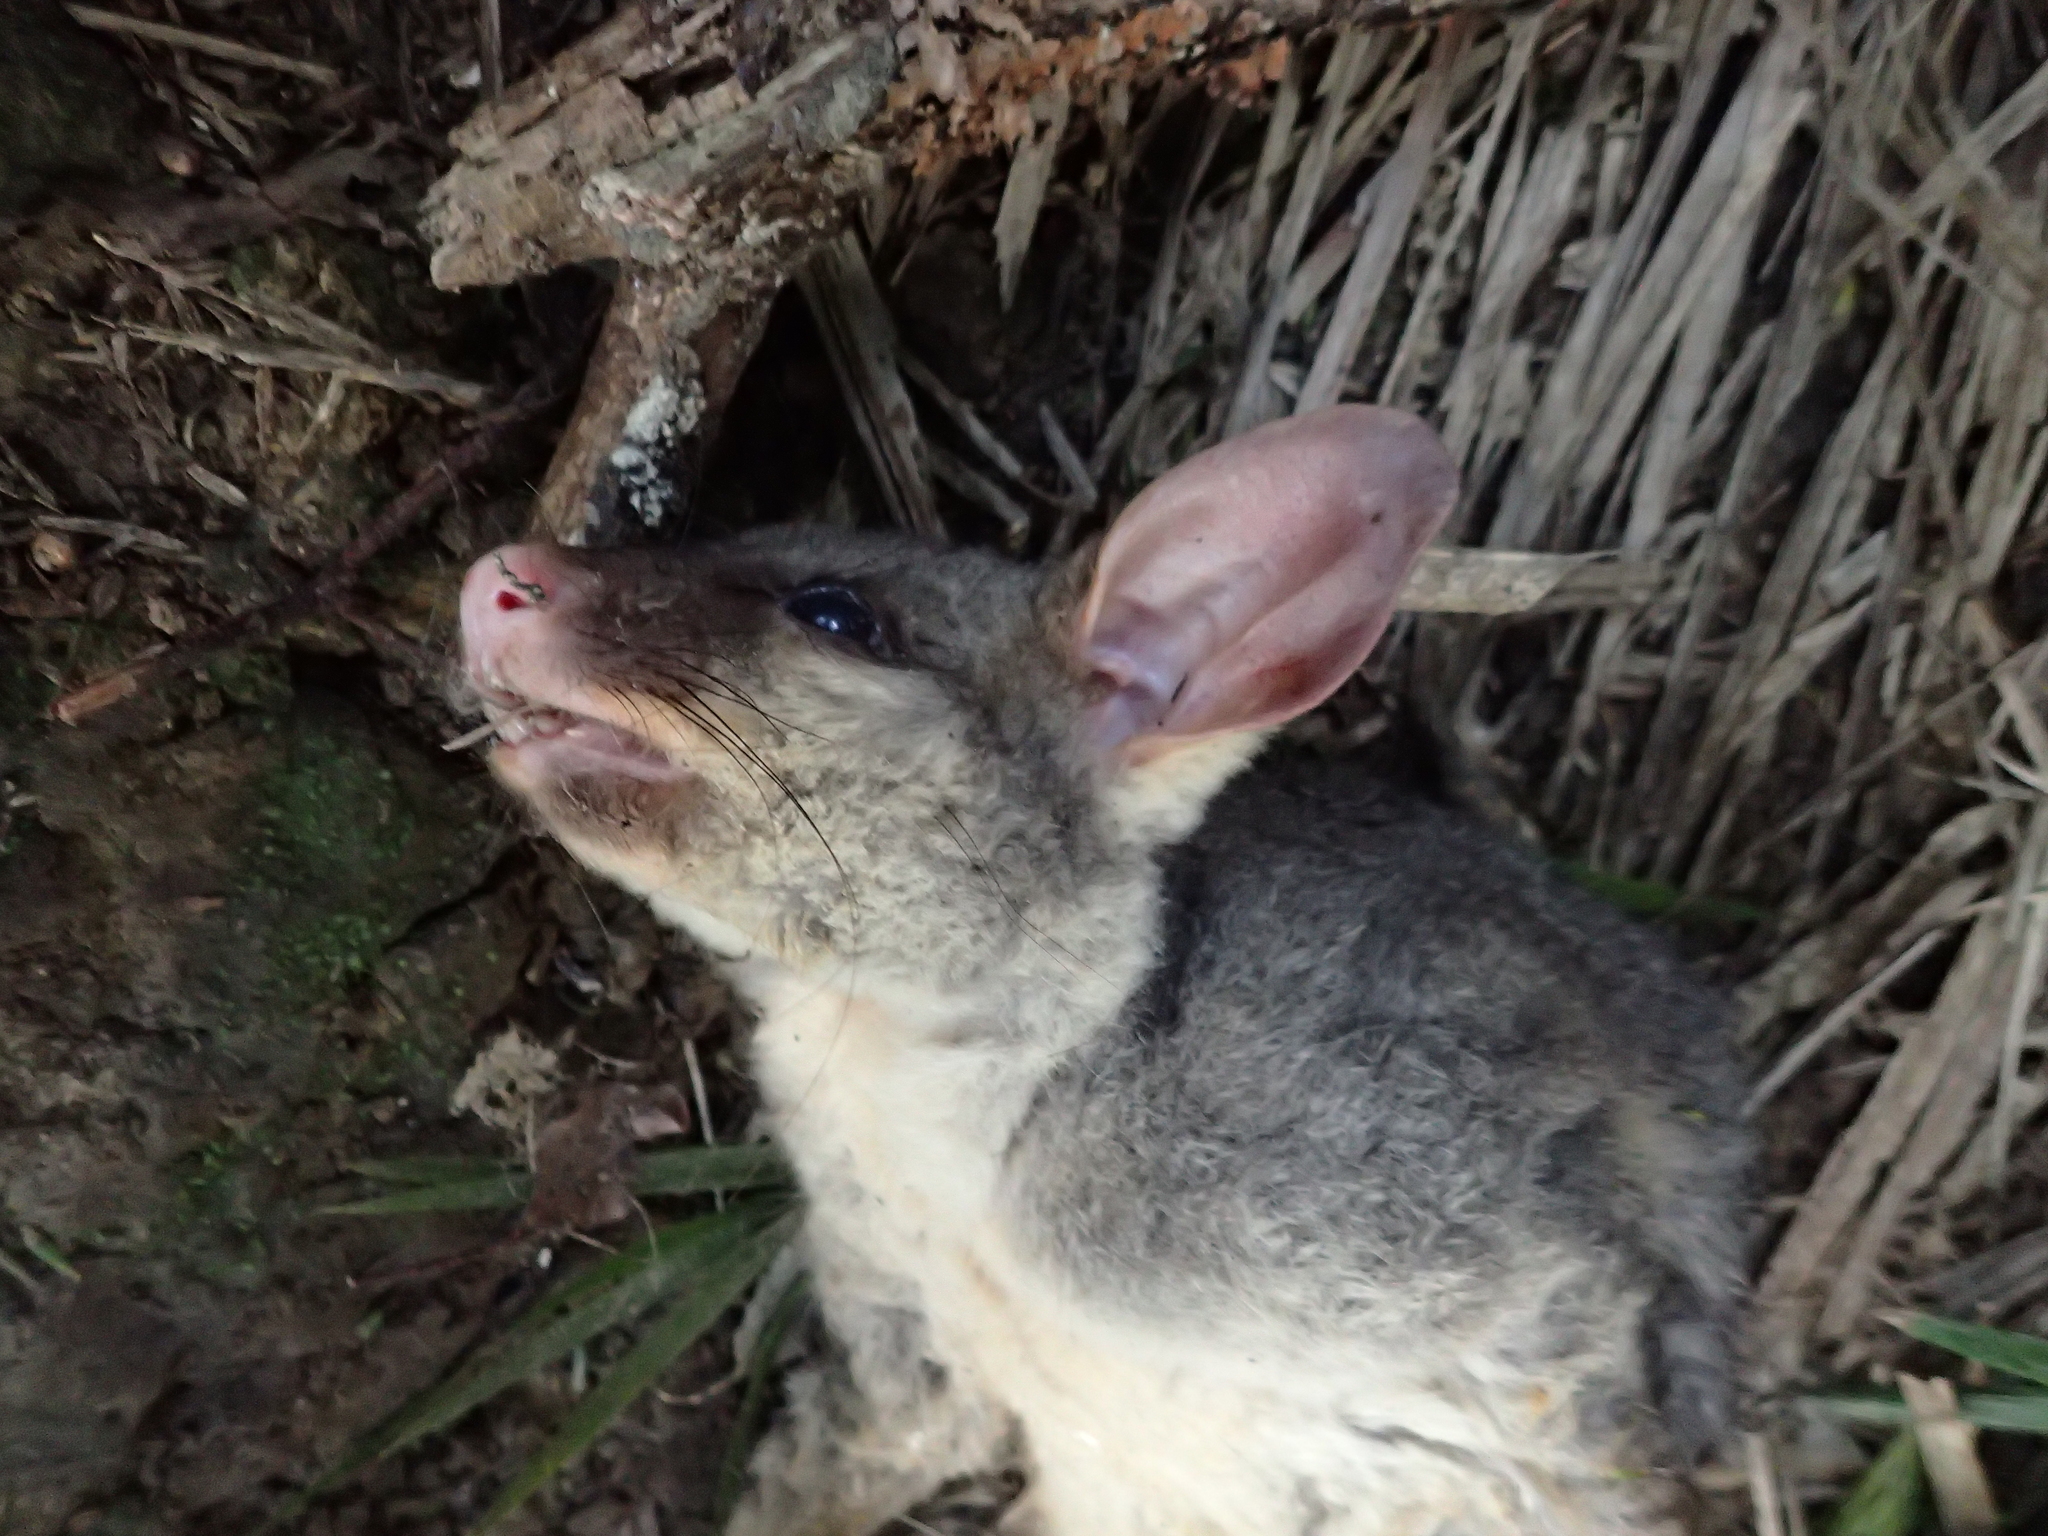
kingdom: Animalia
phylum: Chordata
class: Mammalia
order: Diprotodontia
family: Phalangeridae
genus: Trichosurus
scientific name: Trichosurus vulpecula
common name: Common brushtail
